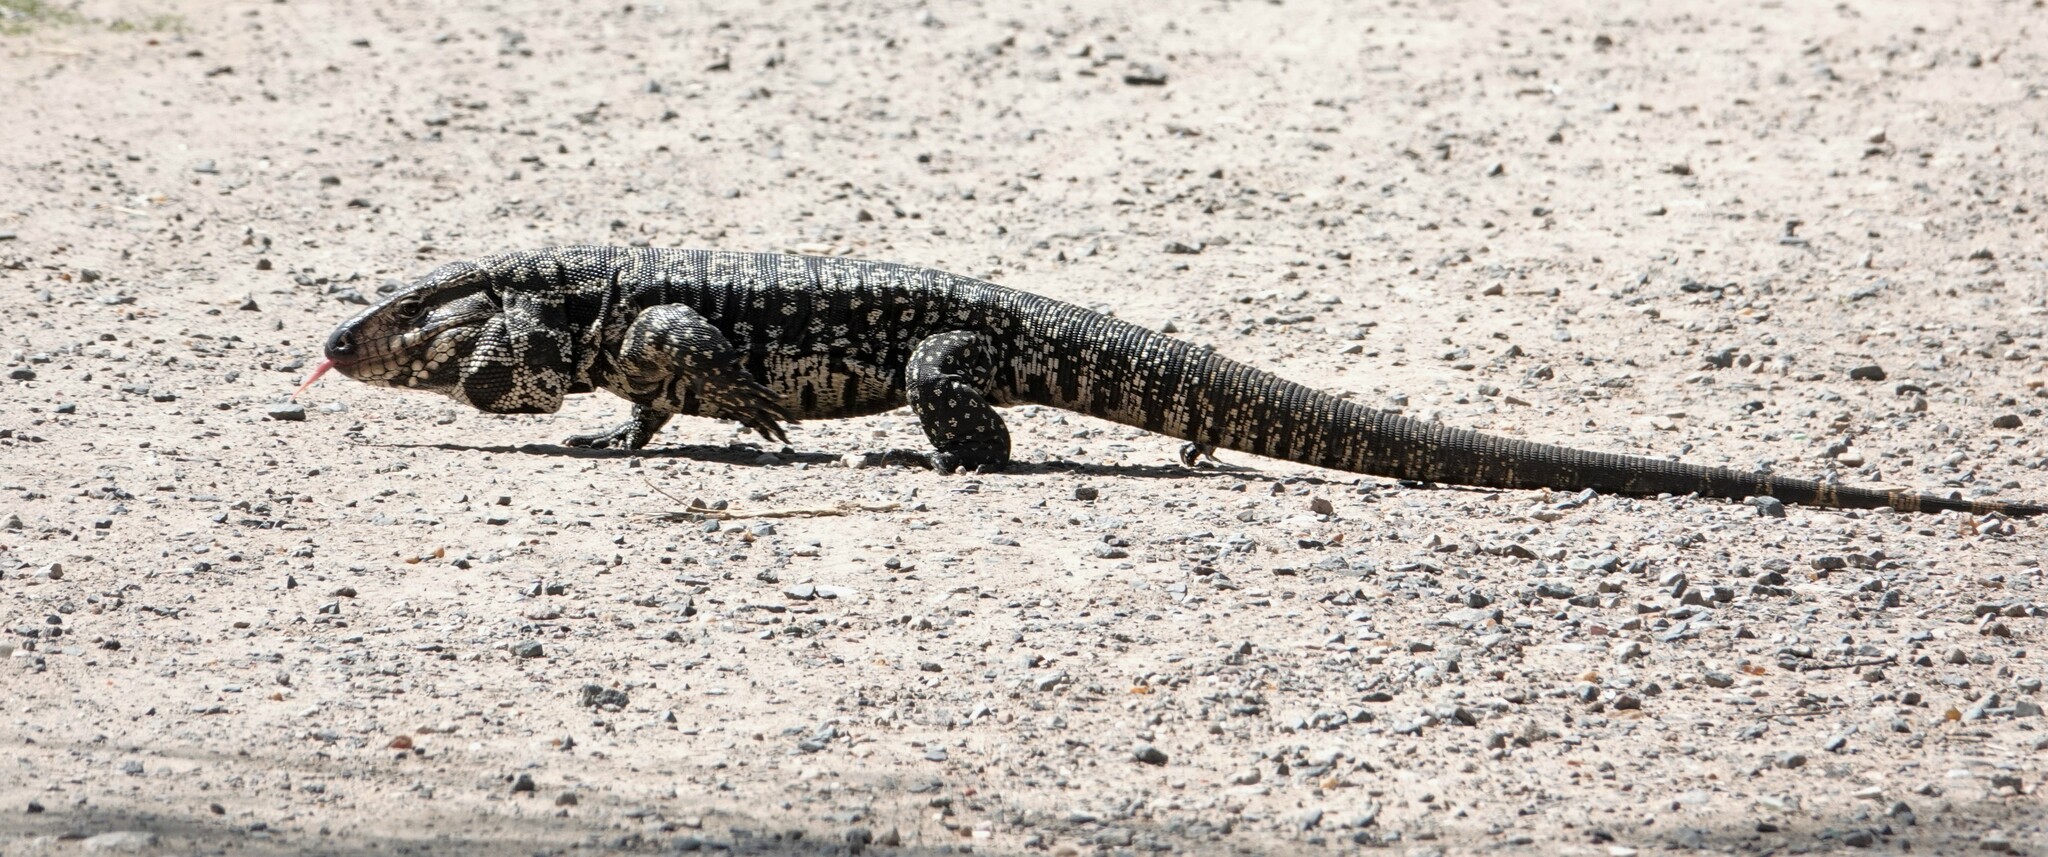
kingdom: Animalia
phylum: Chordata
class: Squamata
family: Teiidae
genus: Salvator
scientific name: Salvator merianae
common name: Argentine black and white tegu
